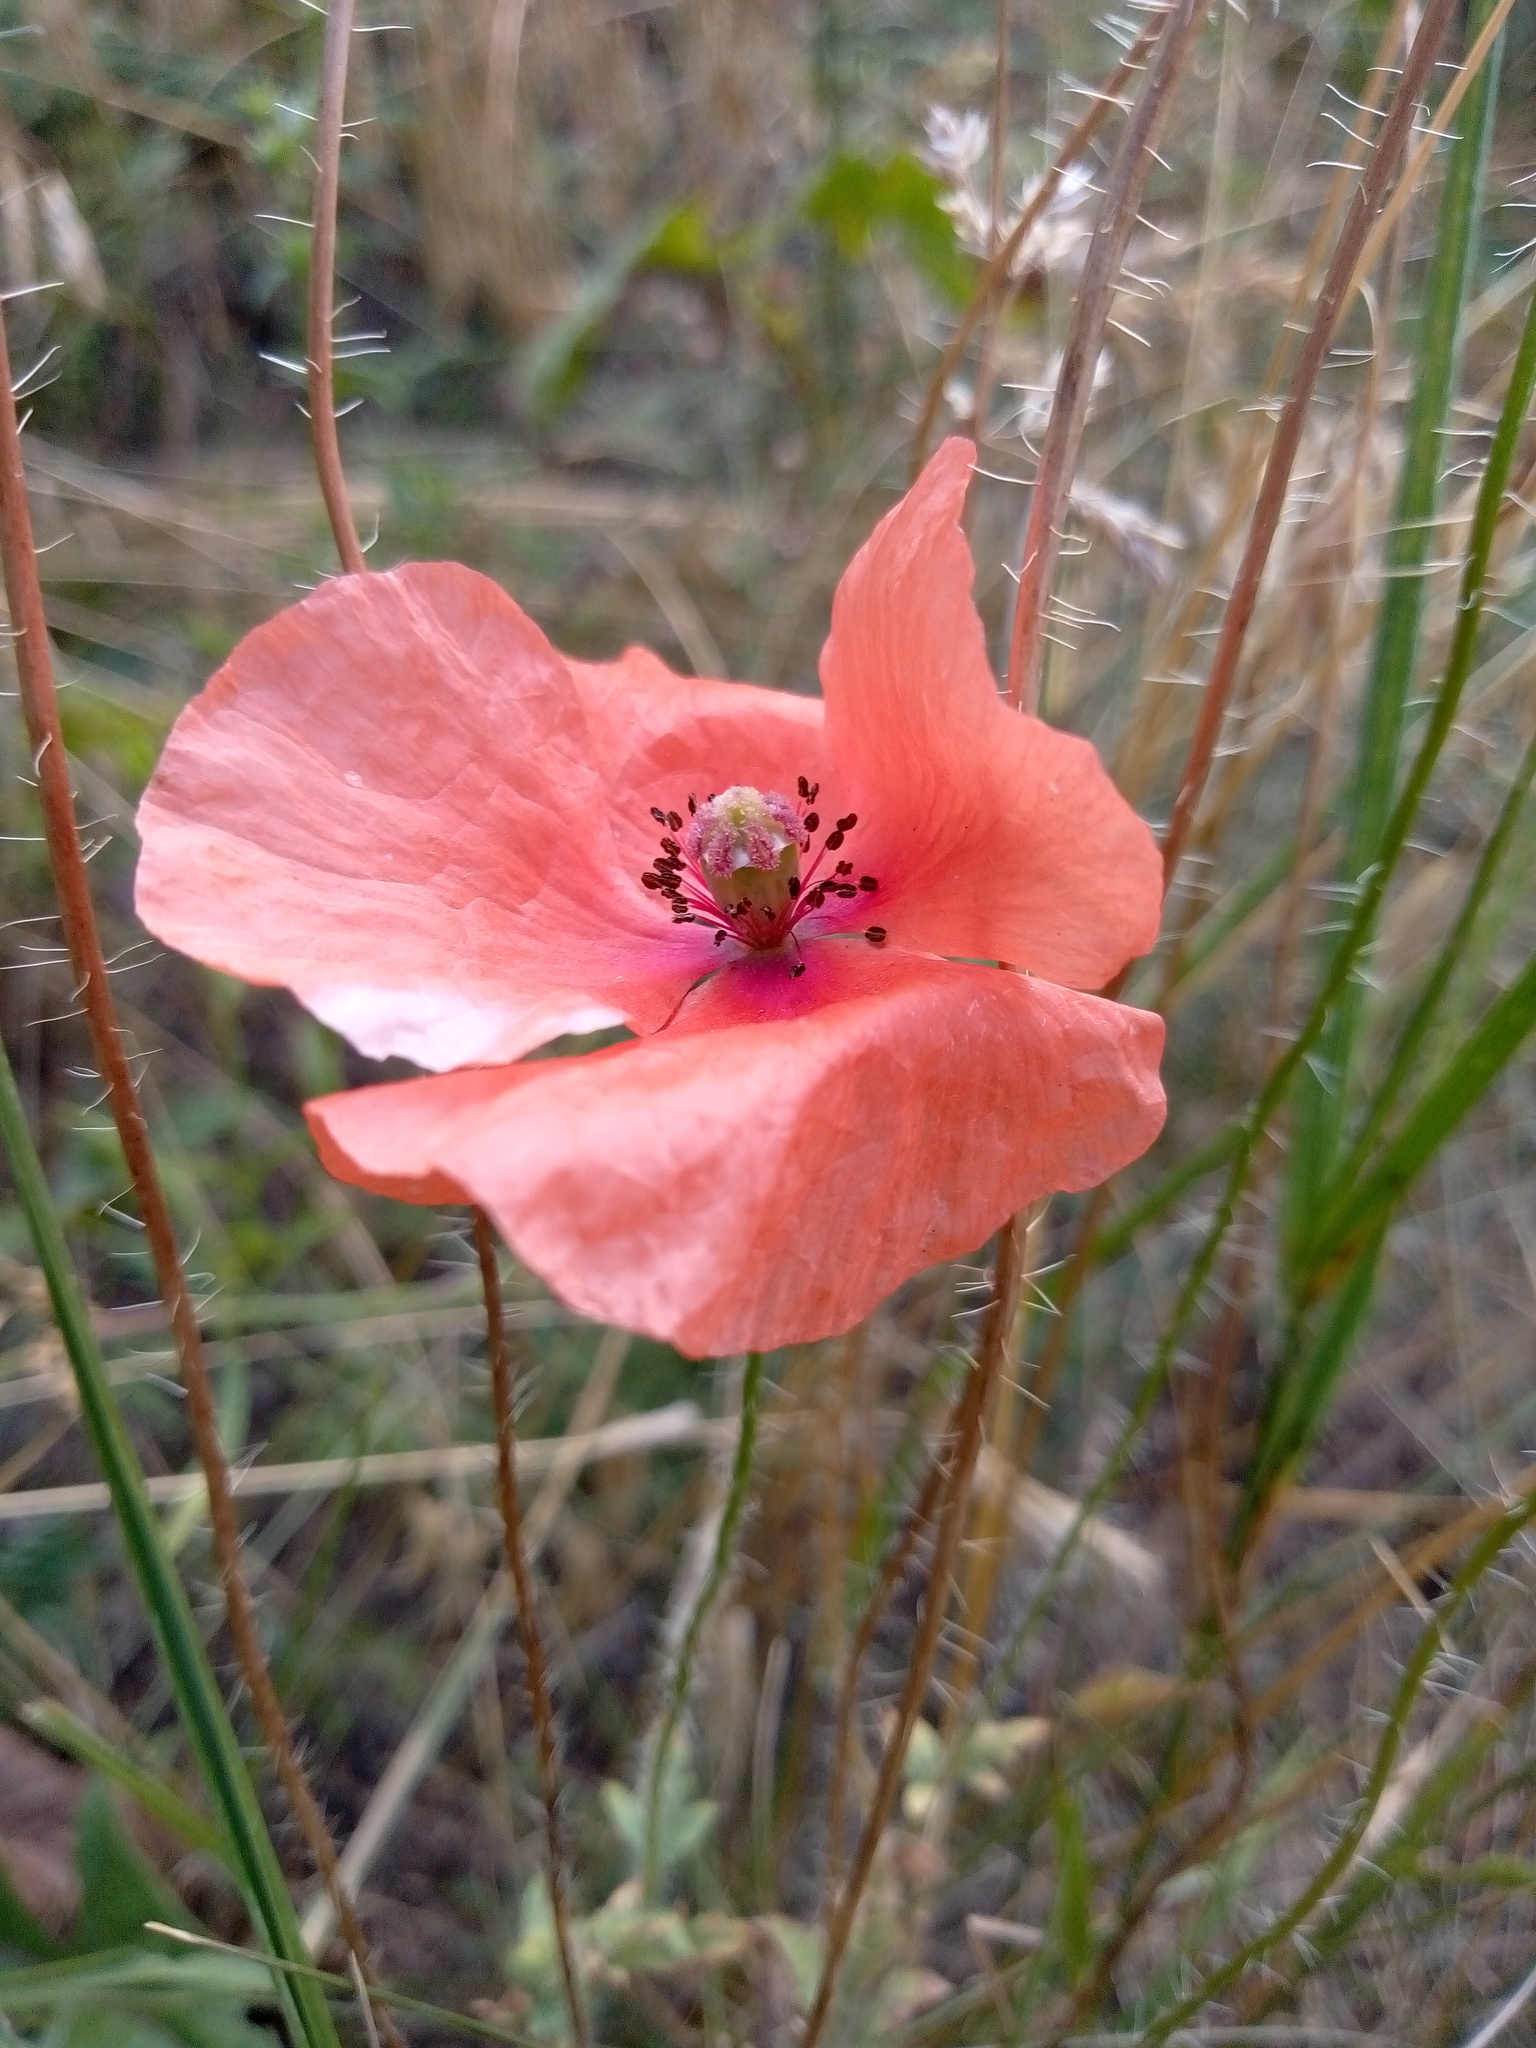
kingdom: Plantae
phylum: Tracheophyta
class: Magnoliopsida
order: Ranunculales
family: Papaveraceae
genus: Papaver
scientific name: Papaver rhoeas
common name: Corn poppy
